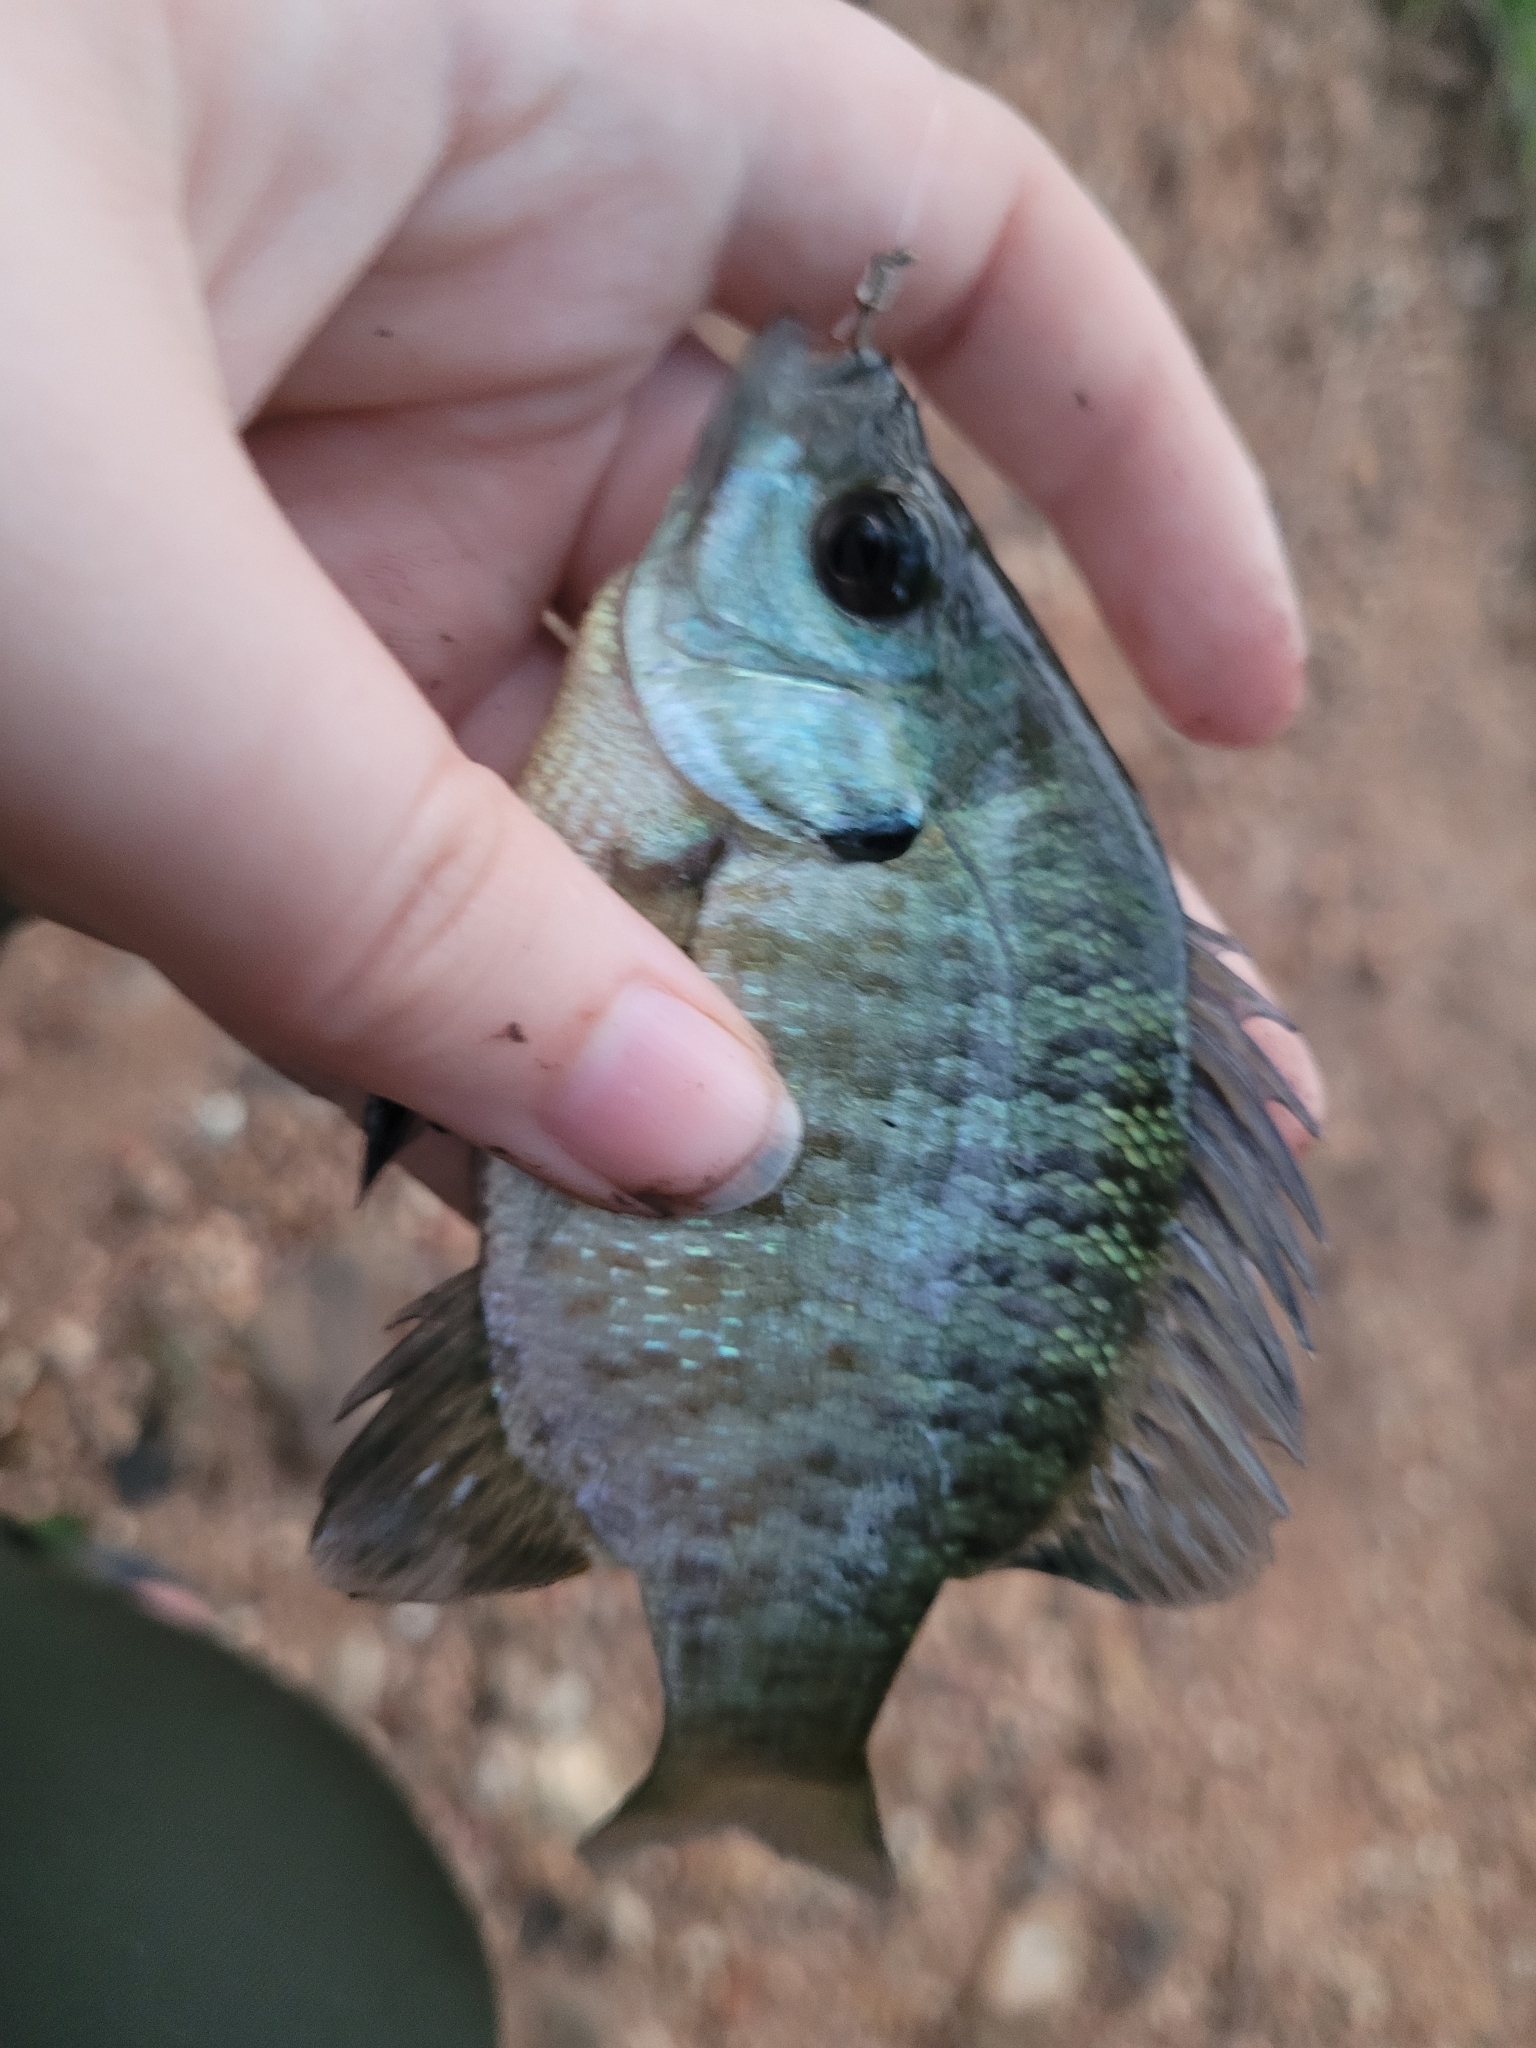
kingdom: Animalia
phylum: Chordata
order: Perciformes
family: Centrarchidae
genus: Lepomis
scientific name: Lepomis macrochirus
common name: Bluegill
